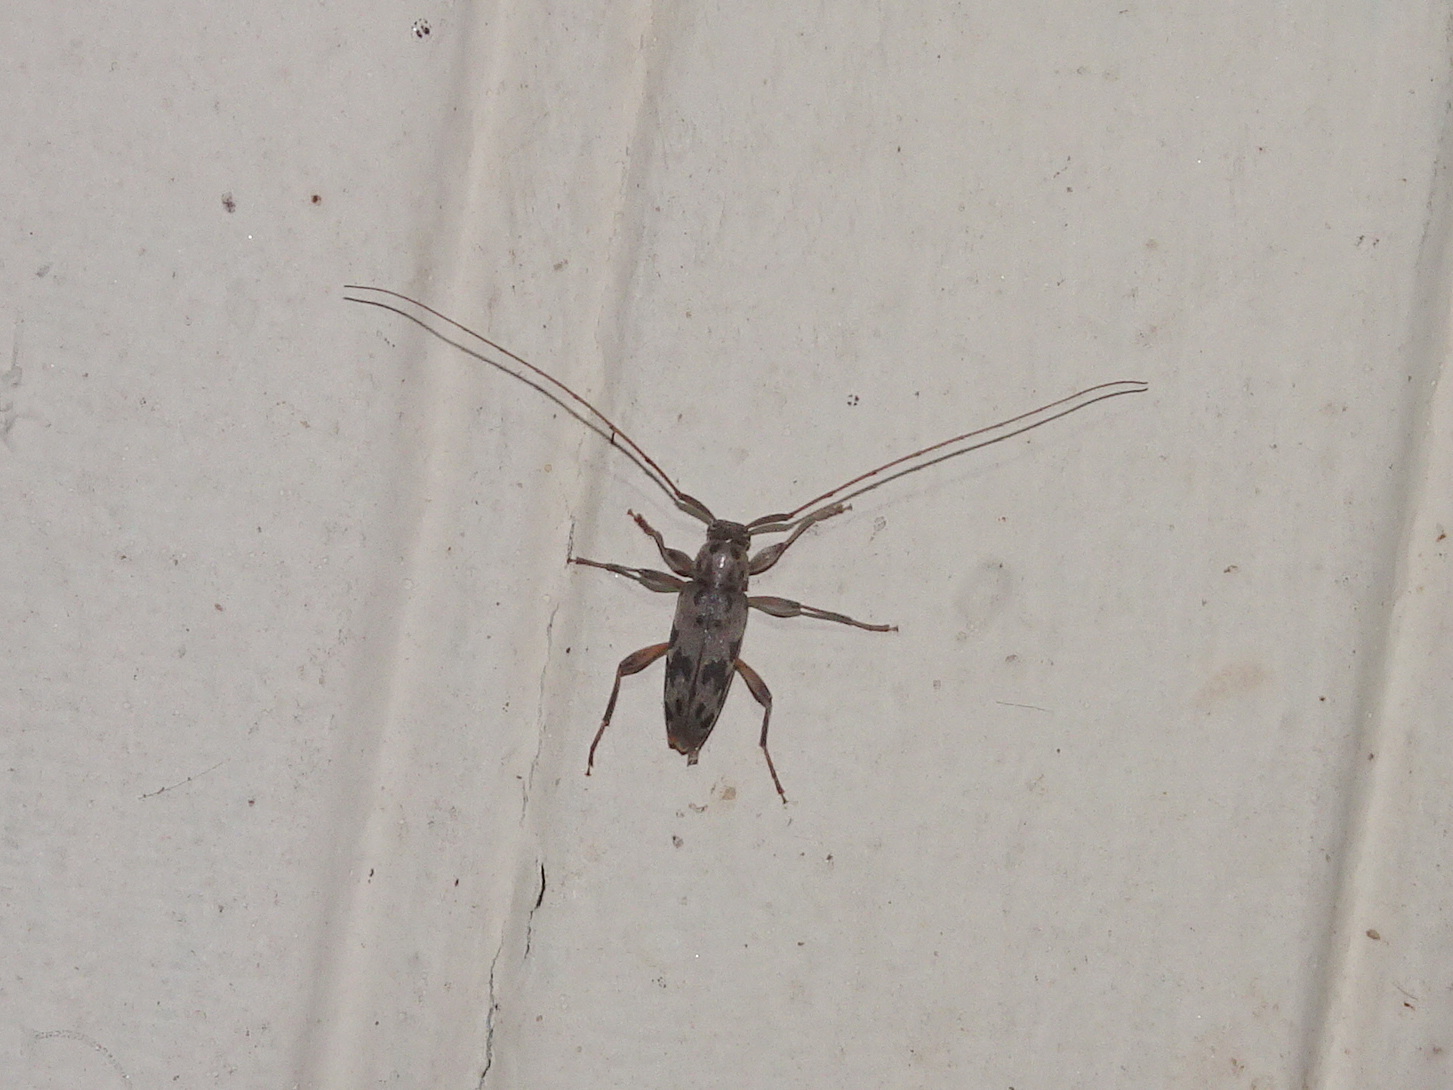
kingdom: Animalia
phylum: Arthropoda
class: Insecta
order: Coleoptera
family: Cerambycidae
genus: Lepturges
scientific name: Lepturges pictus
